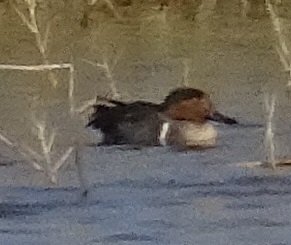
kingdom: Animalia
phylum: Chordata
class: Aves
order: Anseriformes
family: Anatidae
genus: Anas
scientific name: Anas carolinensis
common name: Green-winged teal
